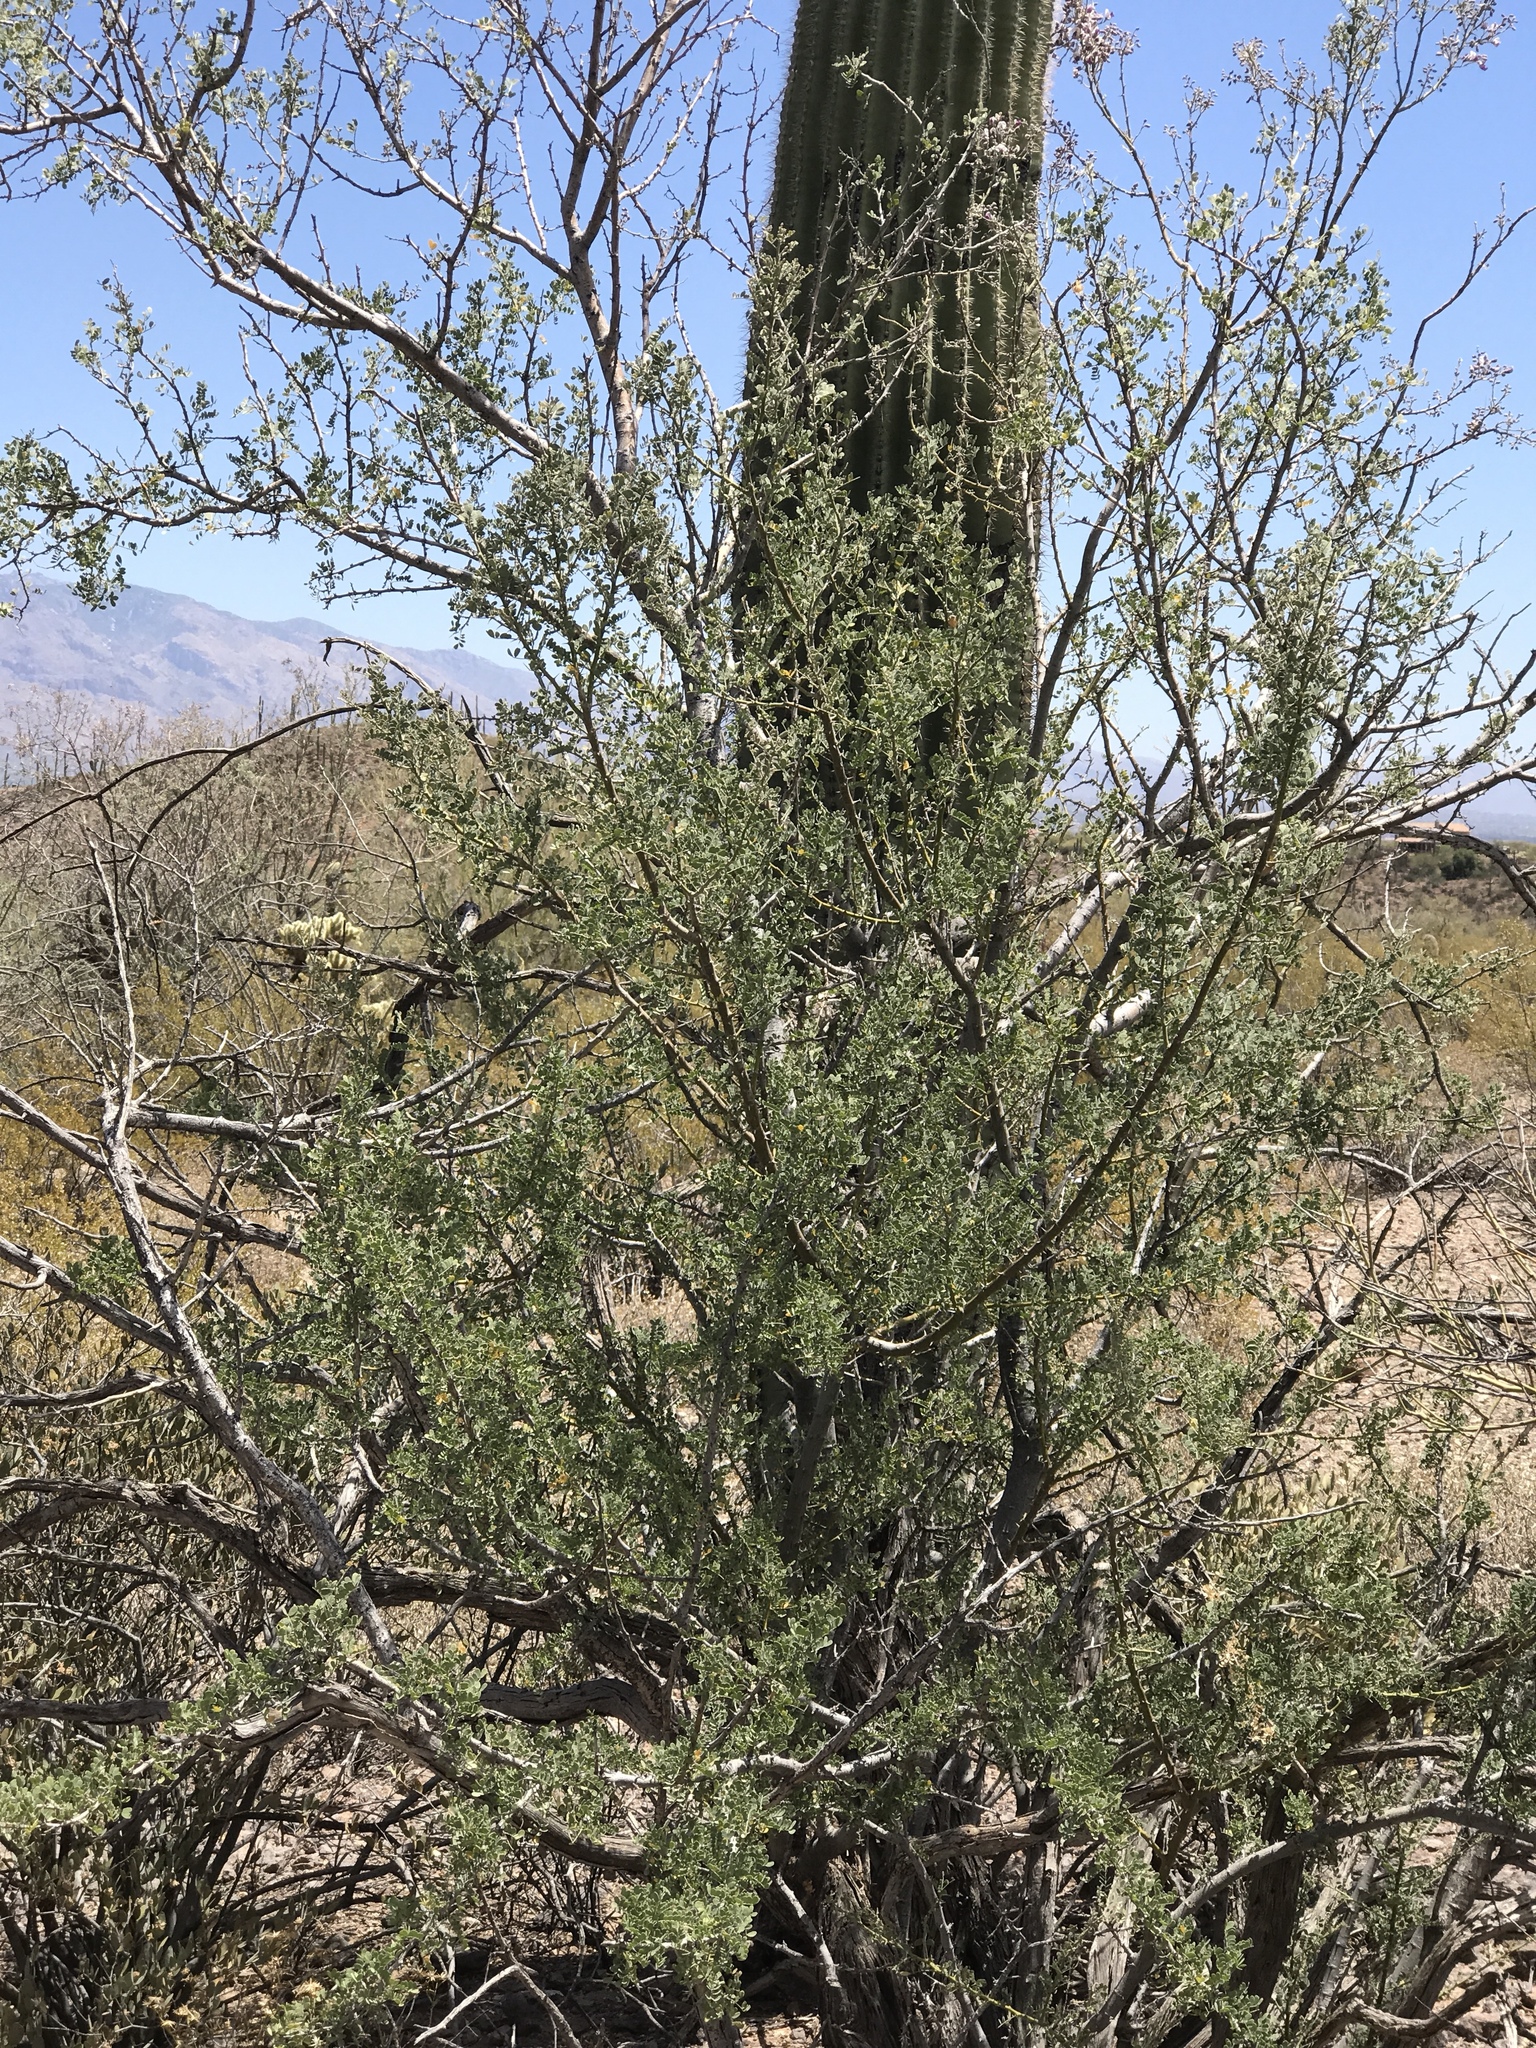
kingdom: Plantae
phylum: Tracheophyta
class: Magnoliopsida
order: Fabales
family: Fabaceae
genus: Olneya
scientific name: Olneya tesota
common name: Desert ironwood
